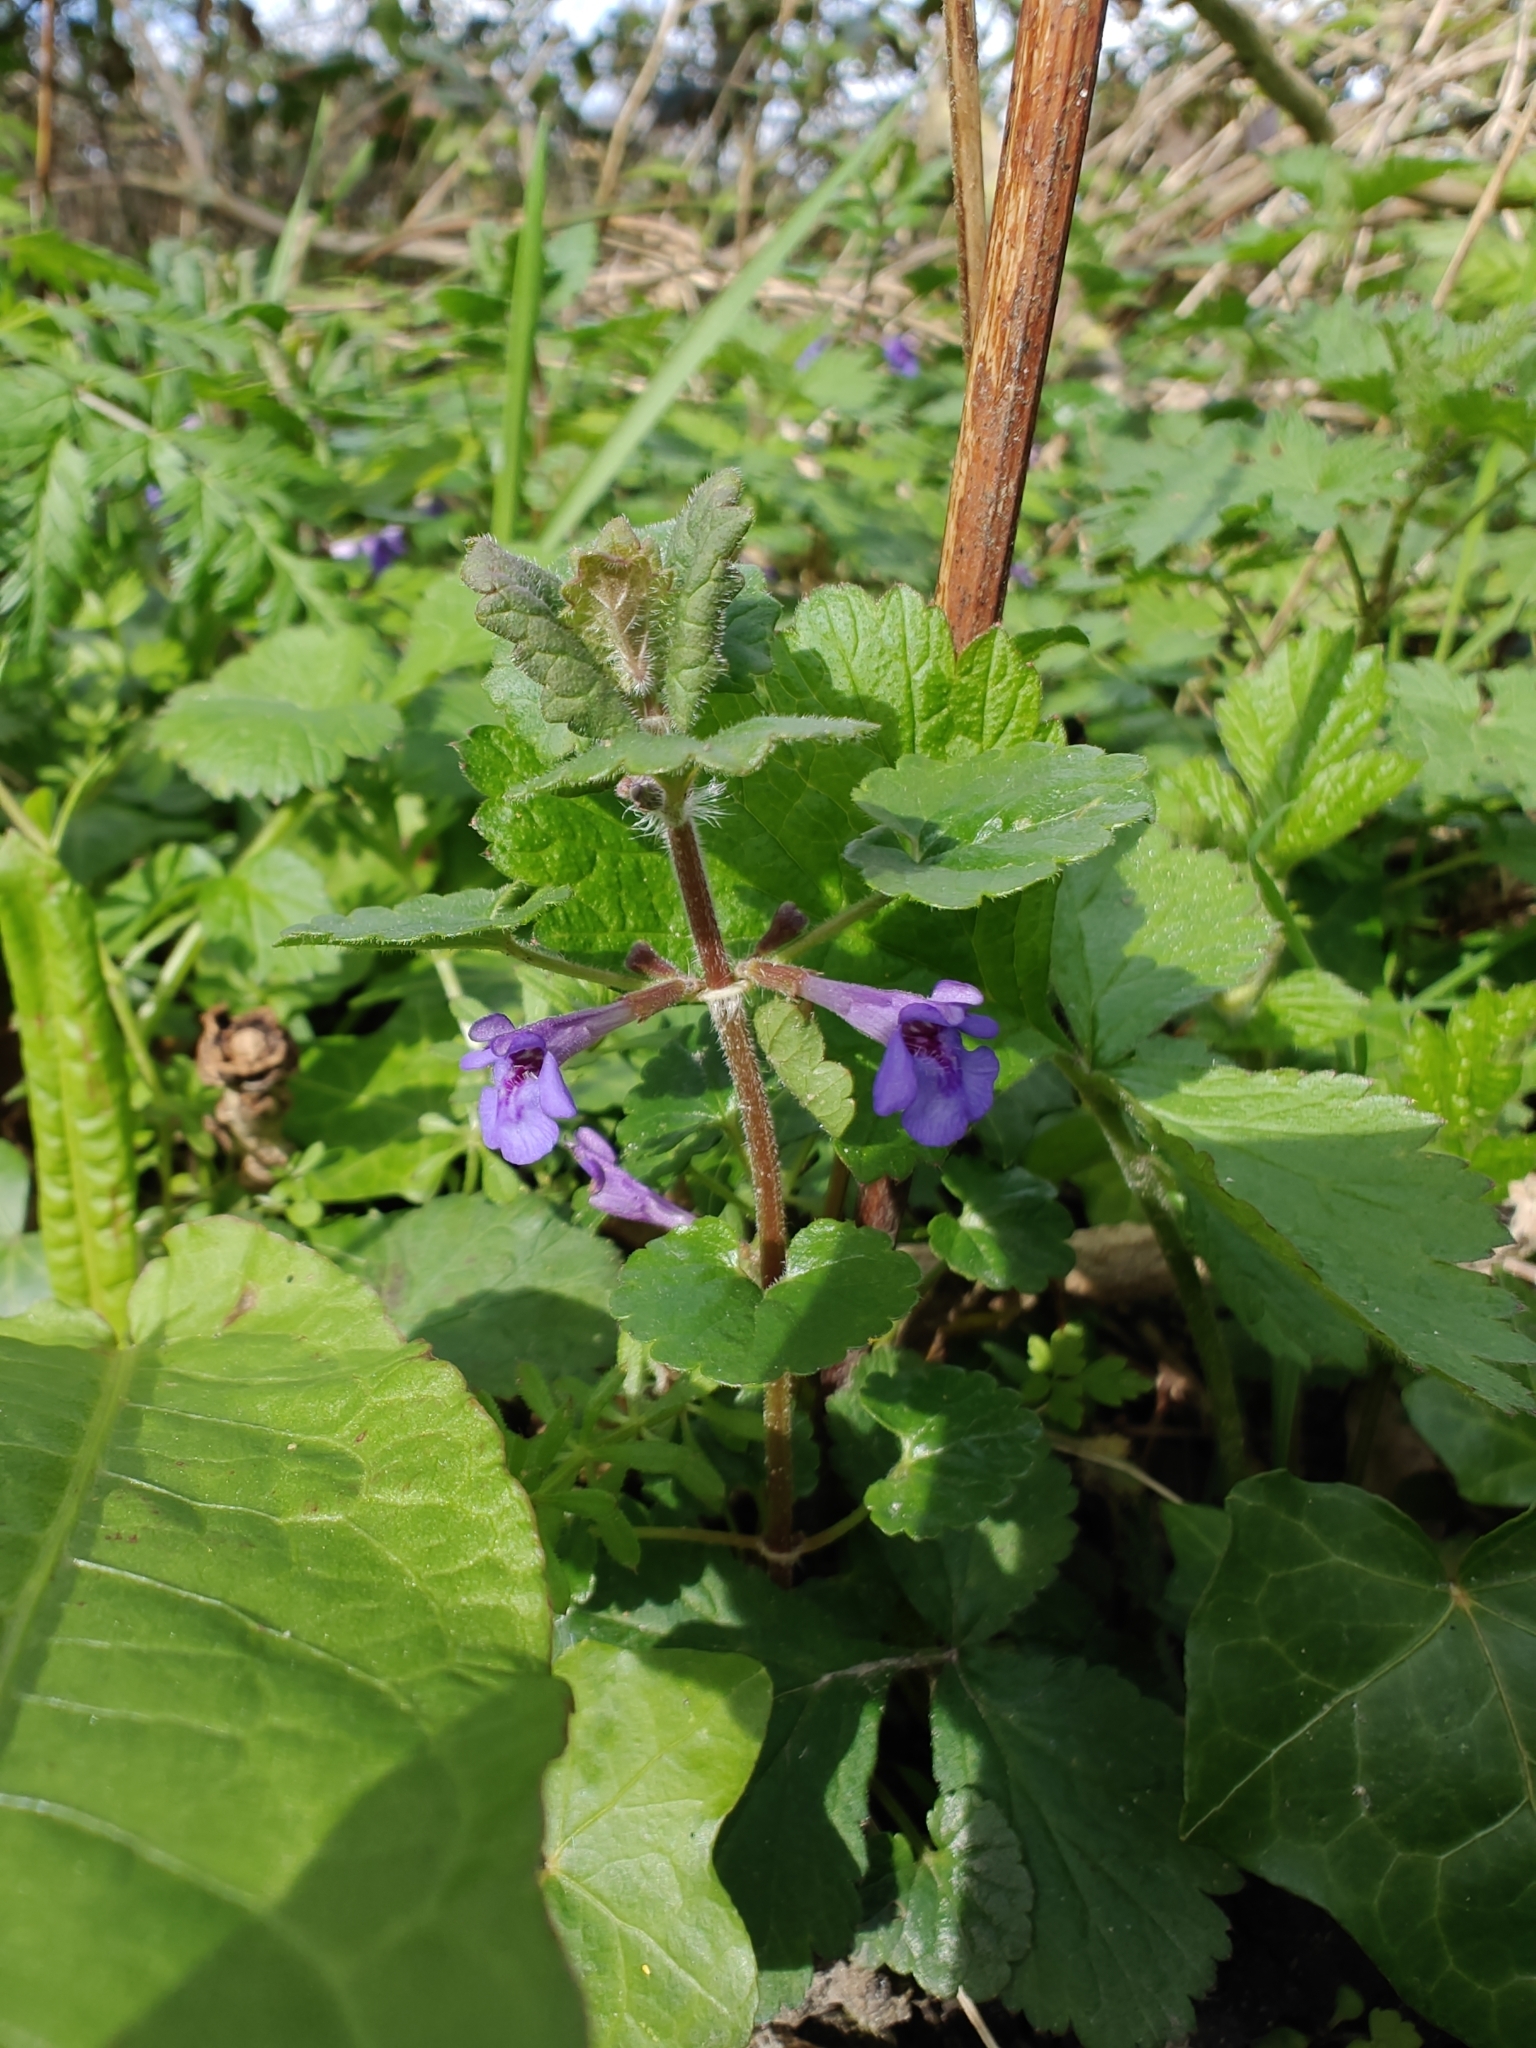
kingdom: Plantae
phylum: Tracheophyta
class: Magnoliopsida
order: Lamiales
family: Lamiaceae
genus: Glechoma
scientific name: Glechoma hederacea
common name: Ground ivy
